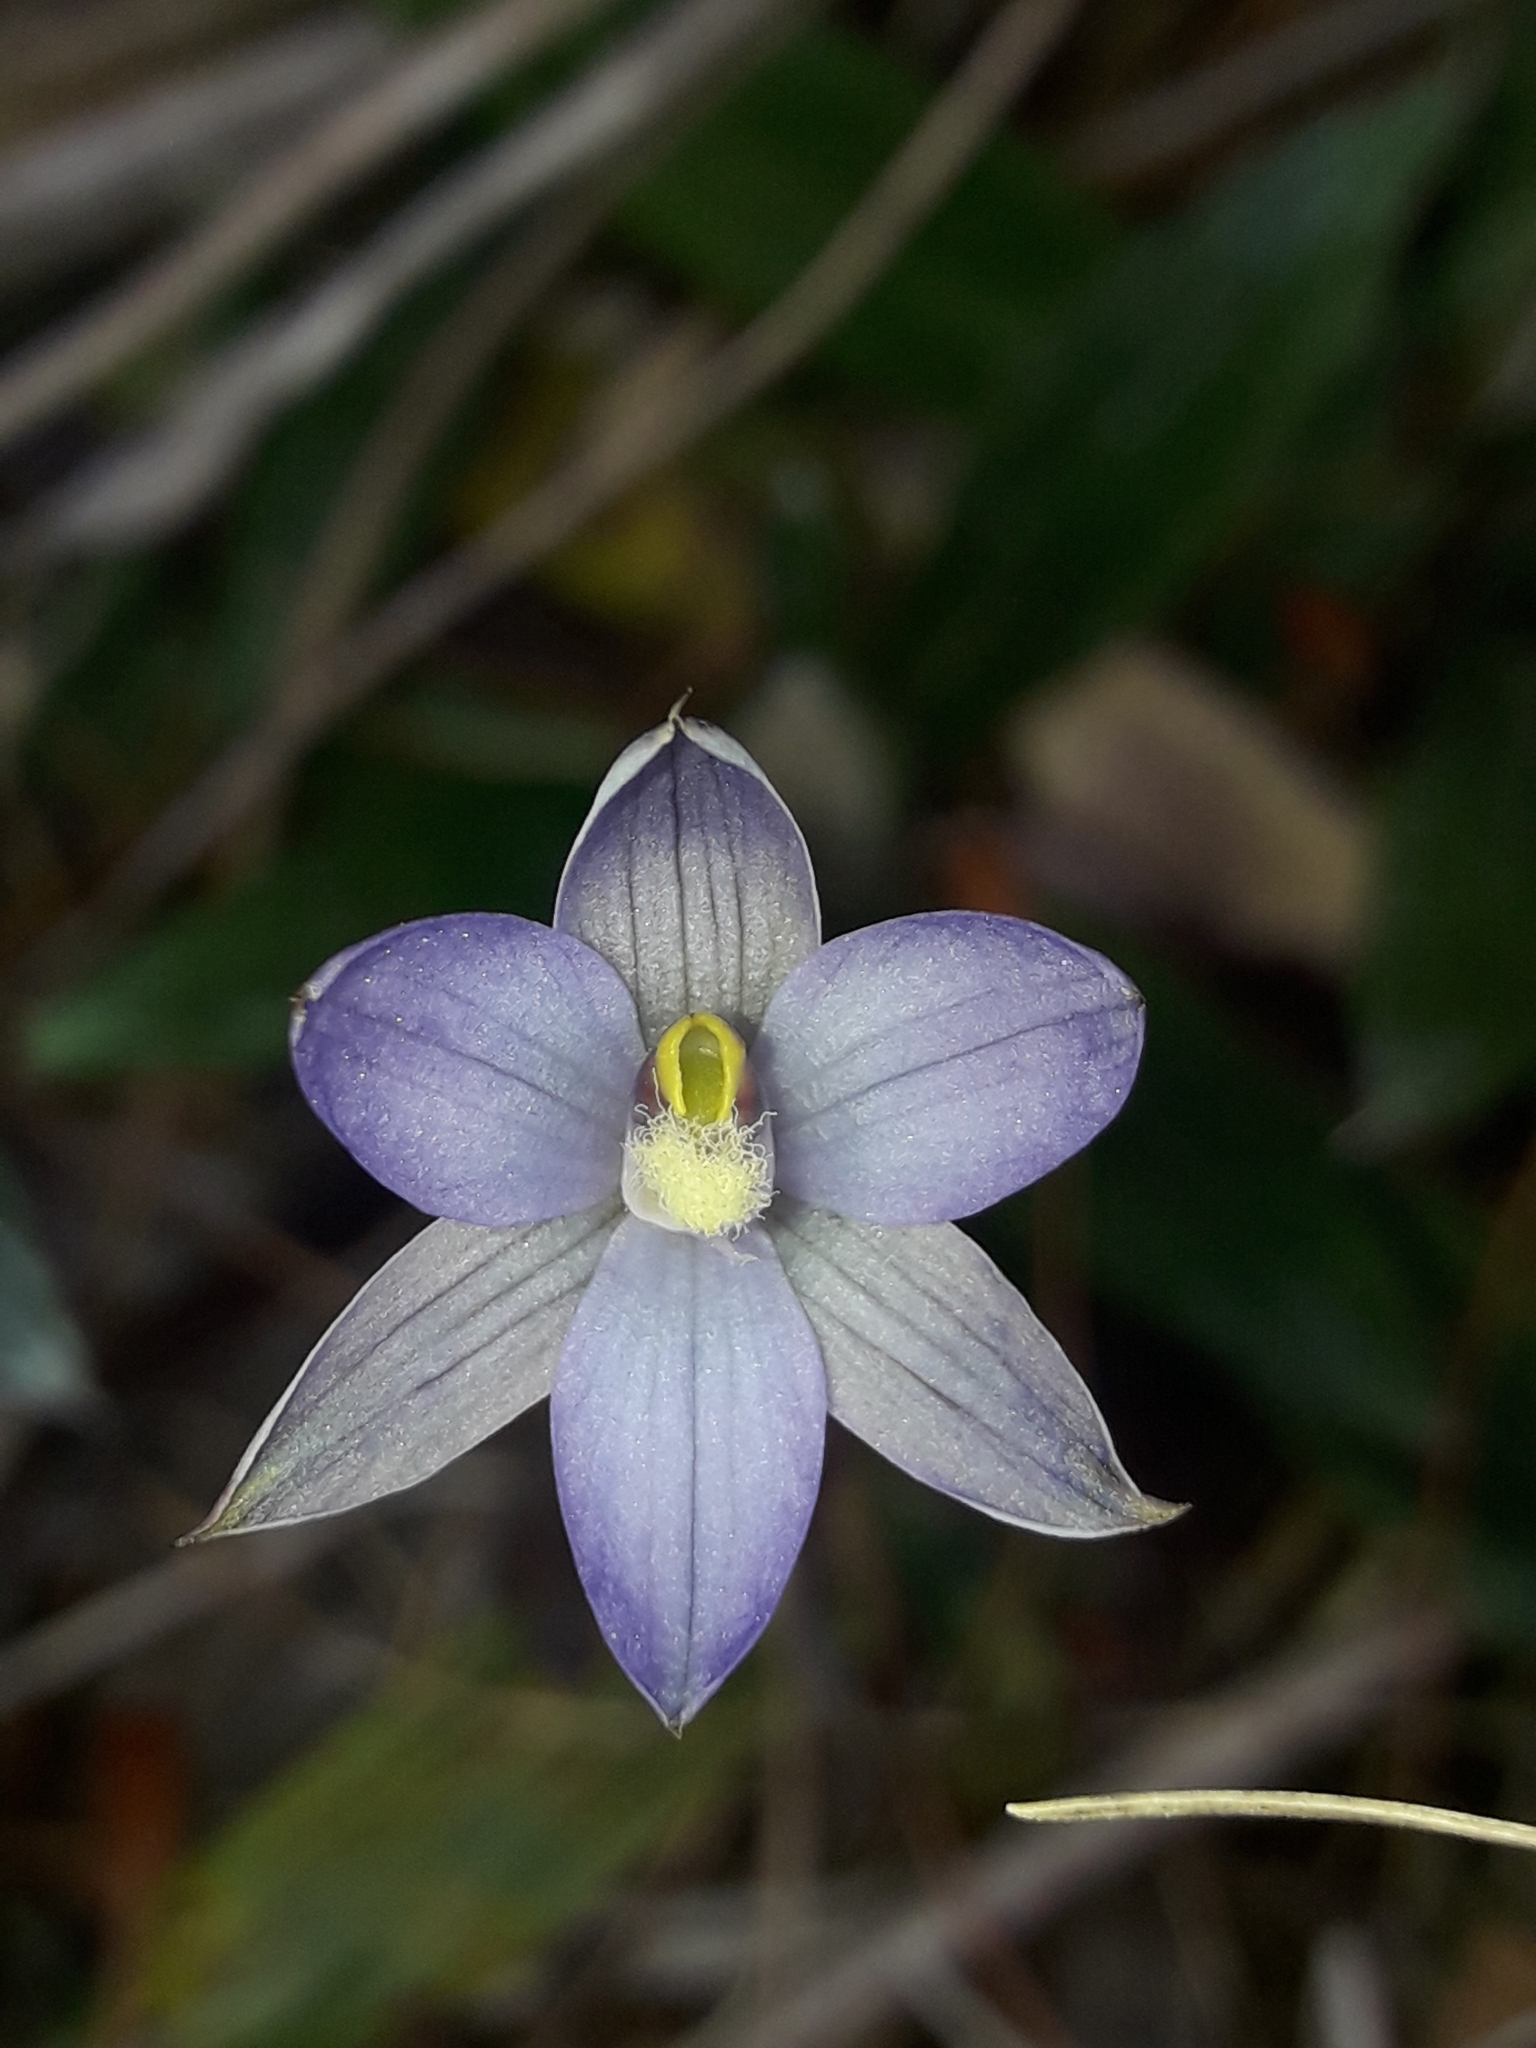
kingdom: Plantae
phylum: Tracheophyta
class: Liliopsida
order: Asparagales
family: Orchidaceae
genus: Thelymitra
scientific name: Thelymitra hatchii
